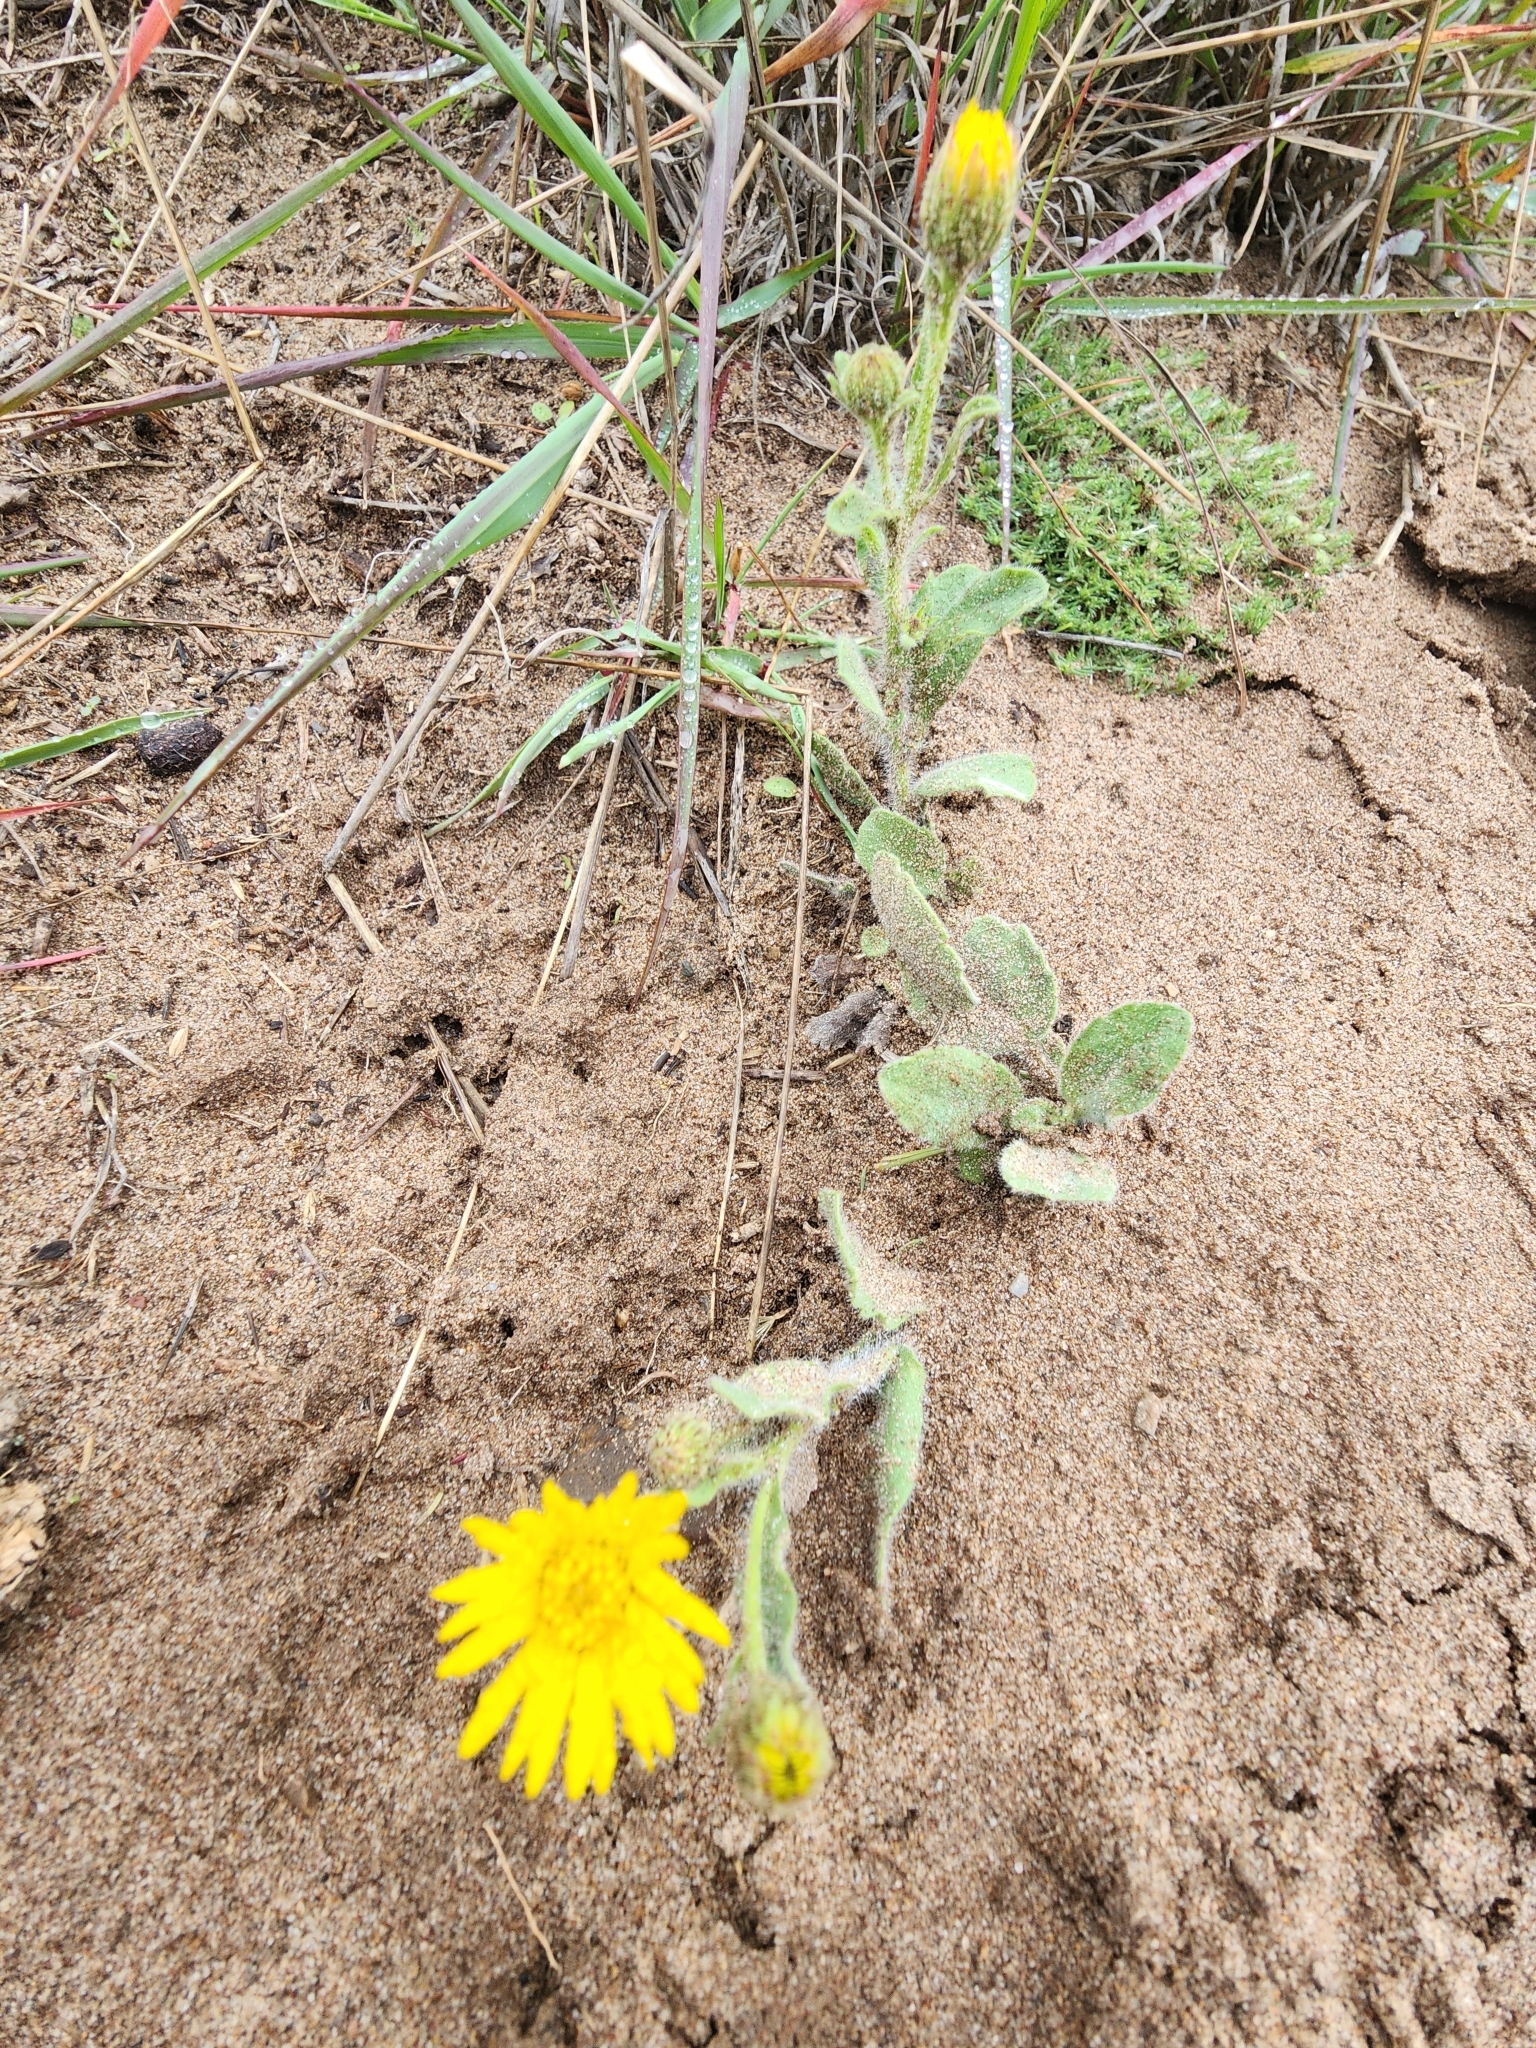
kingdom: Plantae
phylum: Tracheophyta
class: Magnoliopsida
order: Asterales
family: Asteraceae
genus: Heterotheca
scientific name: Heterotheca grandiflora
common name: Telegraphweed
